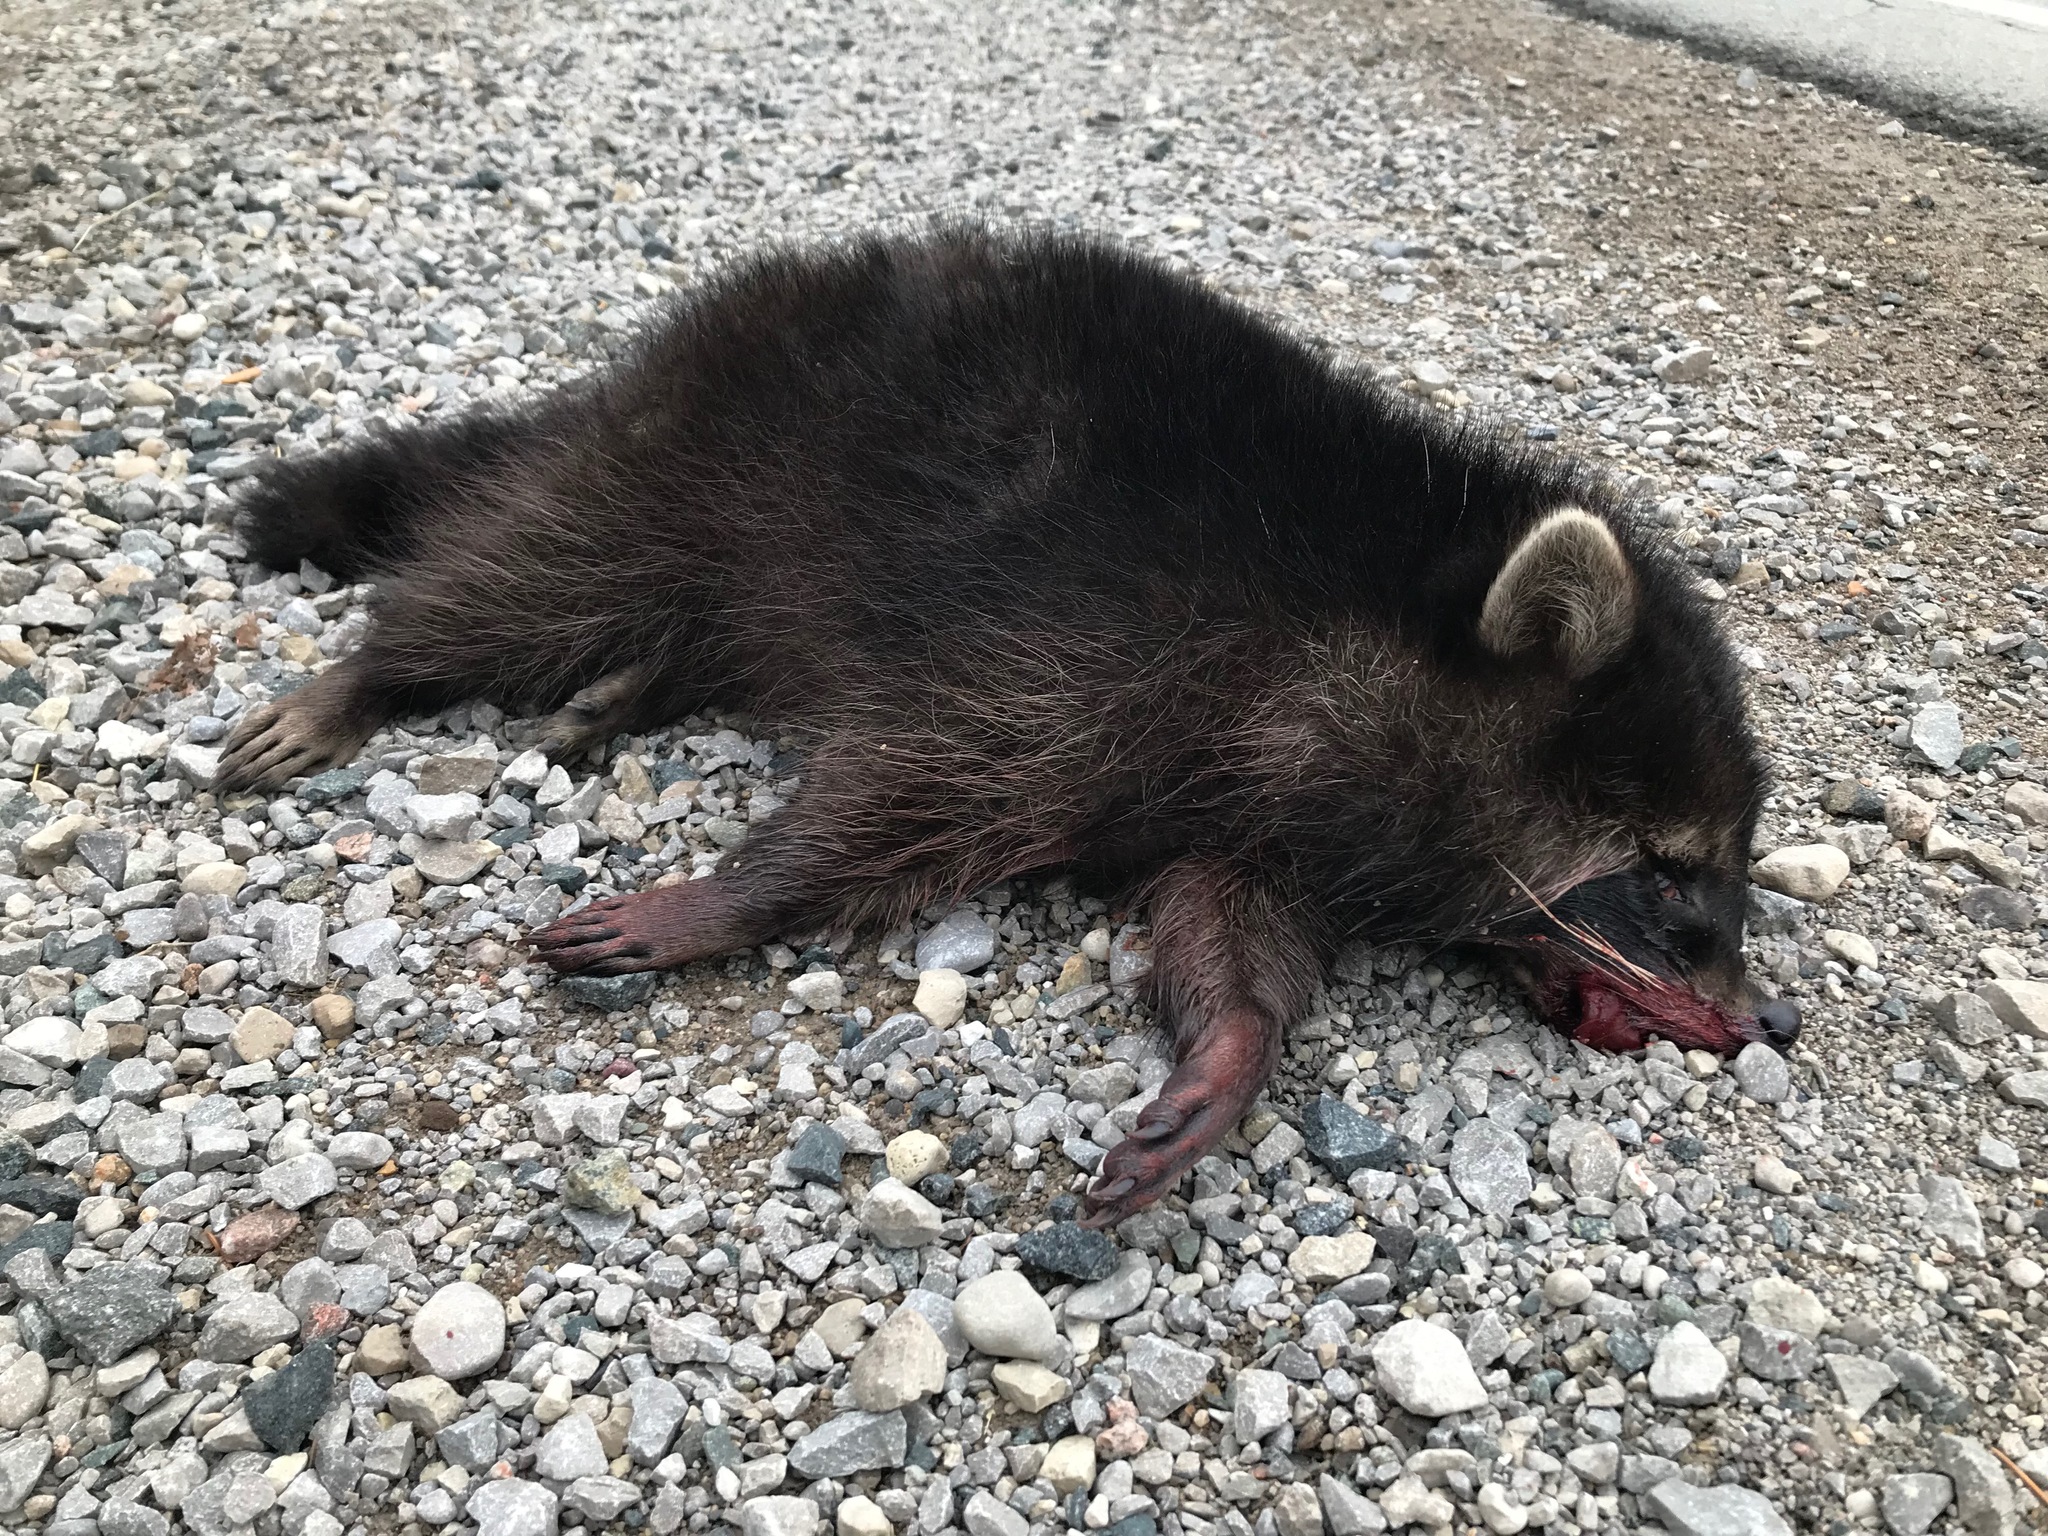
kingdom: Animalia
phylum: Chordata
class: Mammalia
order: Carnivora
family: Procyonidae
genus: Procyon
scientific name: Procyon lotor
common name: Raccoon
